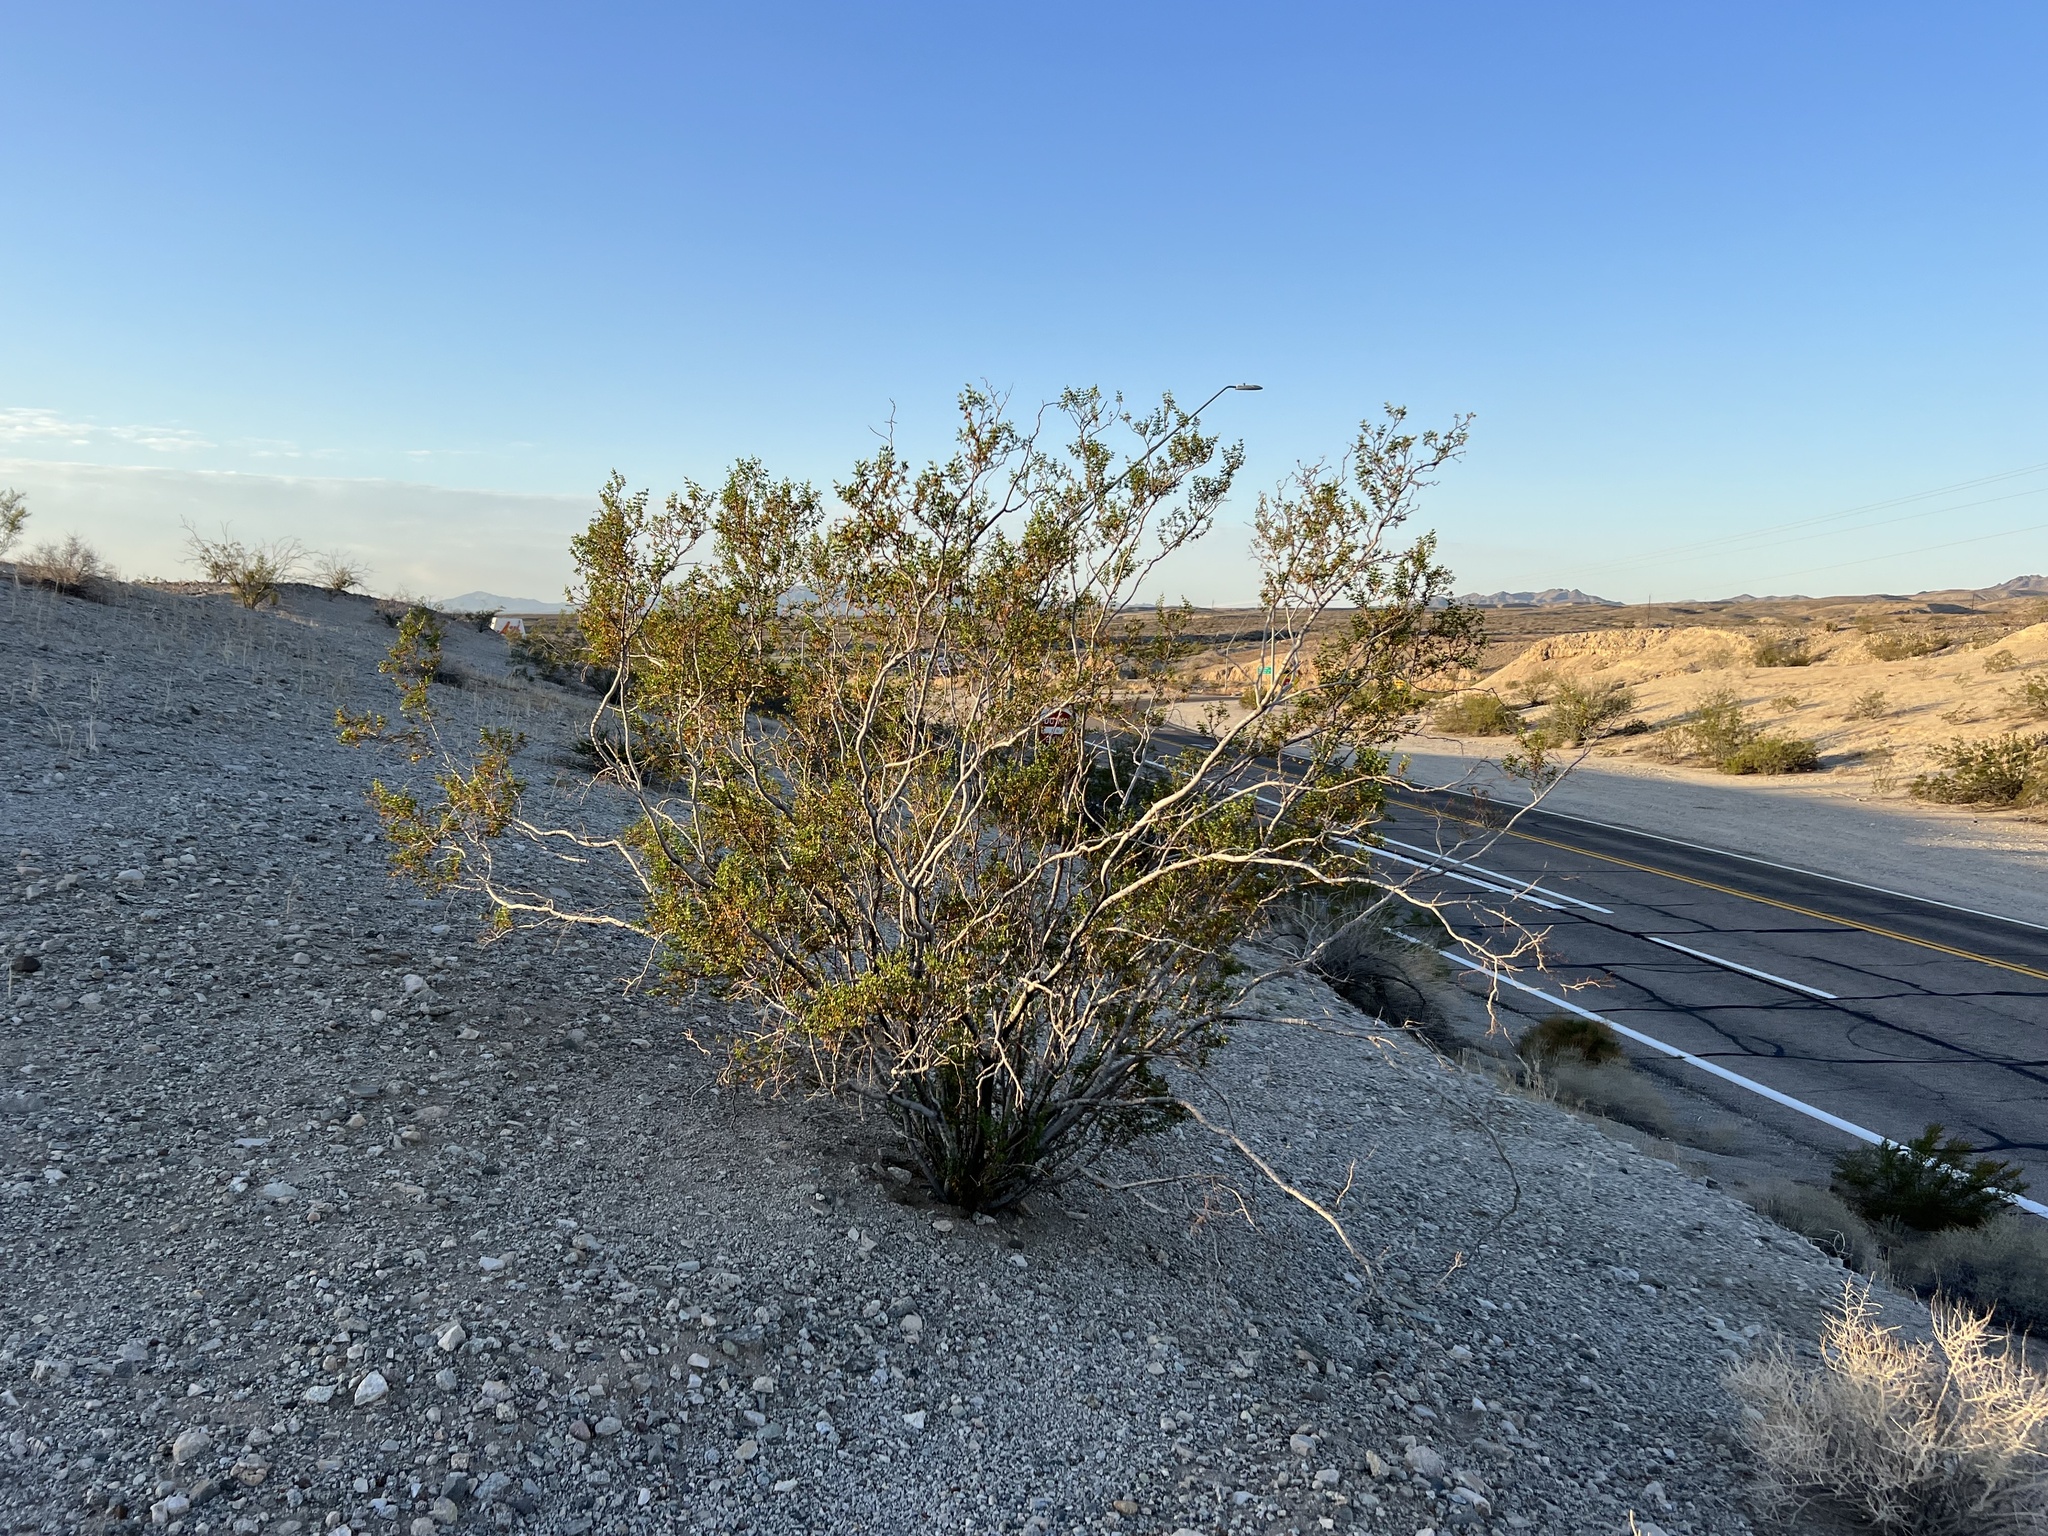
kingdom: Plantae
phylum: Tracheophyta
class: Magnoliopsida
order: Zygophyllales
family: Zygophyllaceae
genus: Larrea
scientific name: Larrea tridentata
